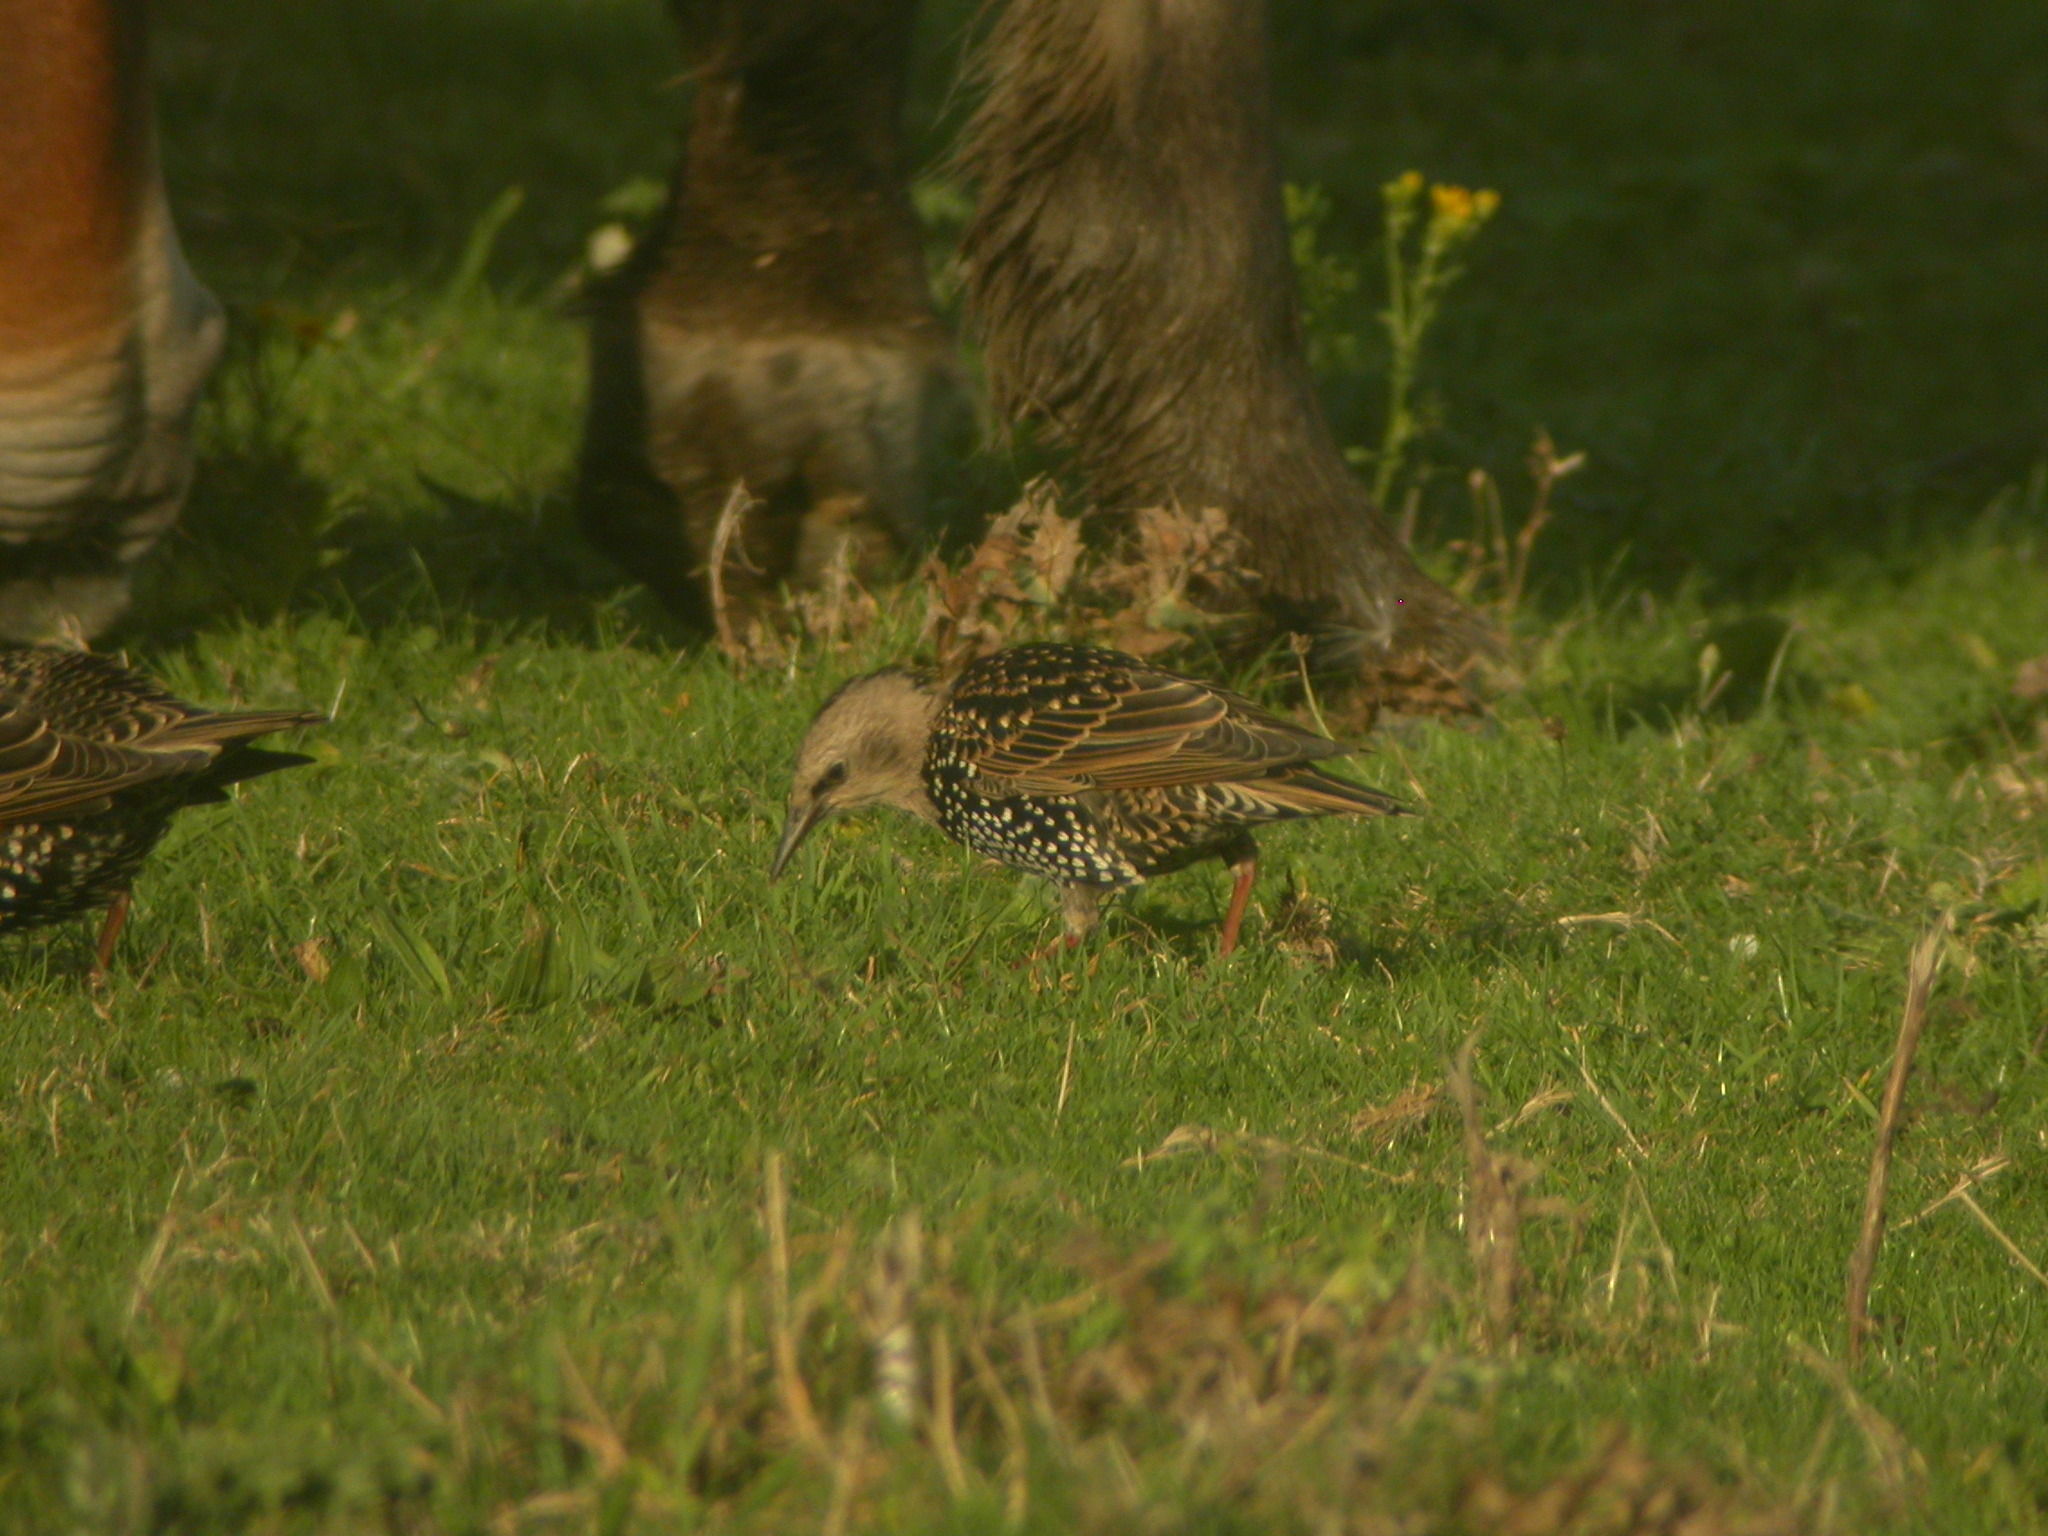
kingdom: Animalia
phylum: Chordata
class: Aves
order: Passeriformes
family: Sturnidae
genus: Sturnus
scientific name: Sturnus vulgaris
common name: Common starling
